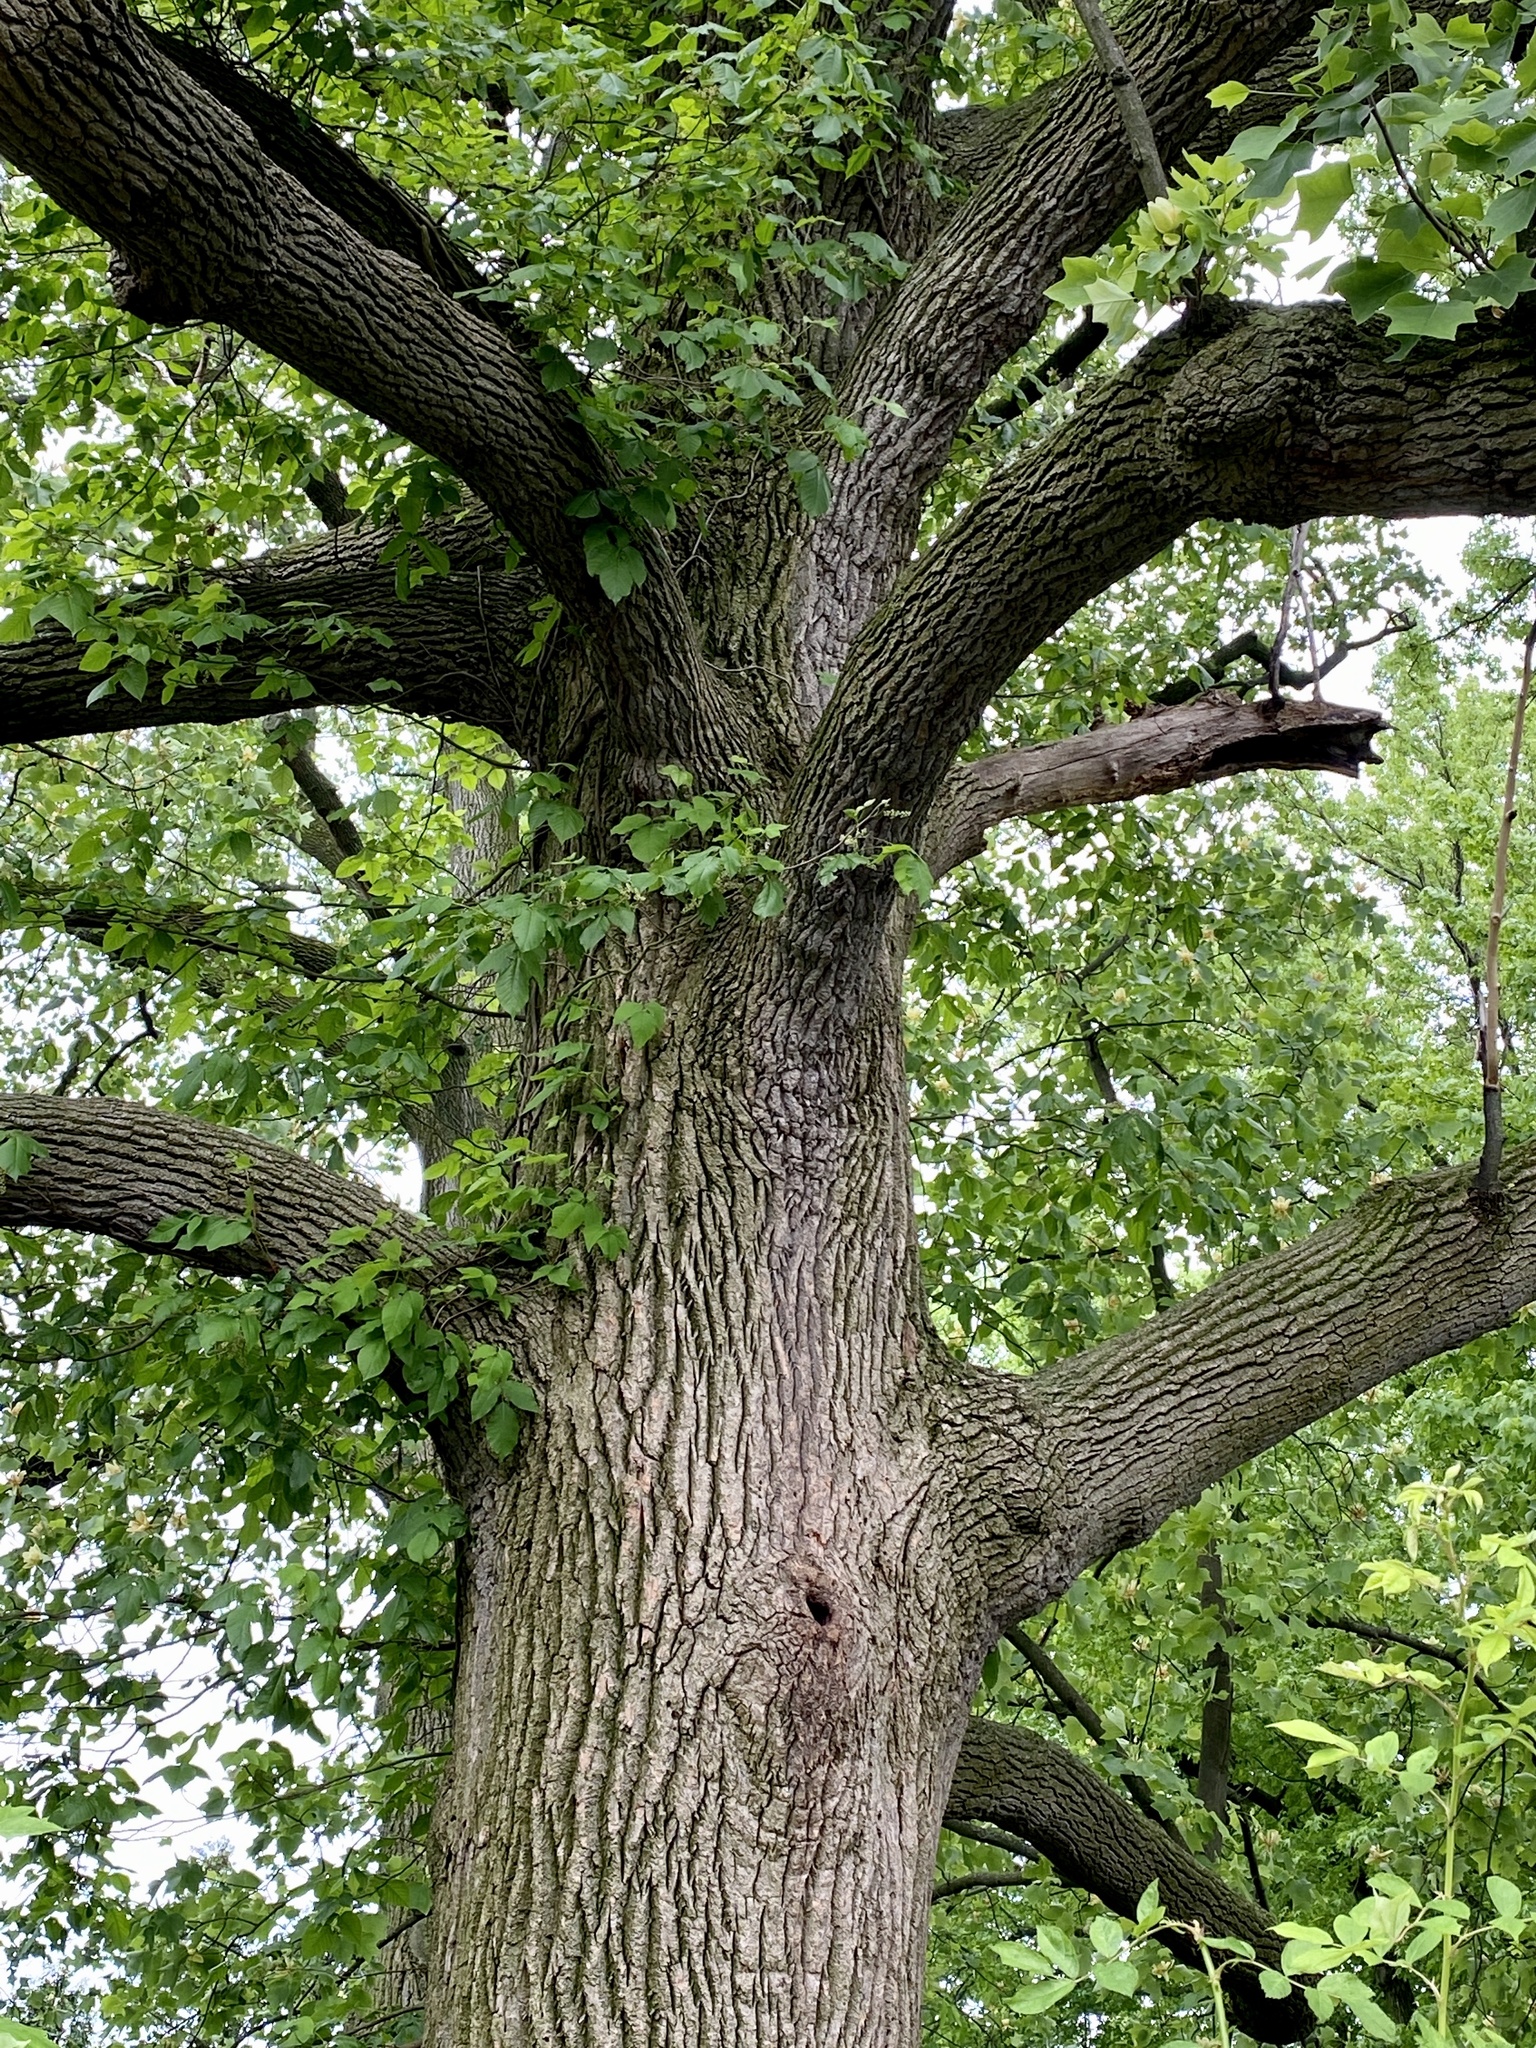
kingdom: Plantae
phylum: Tracheophyta
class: Magnoliopsida
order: Magnoliales
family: Magnoliaceae
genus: Liriodendron
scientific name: Liriodendron tulipifera
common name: Tulip tree
